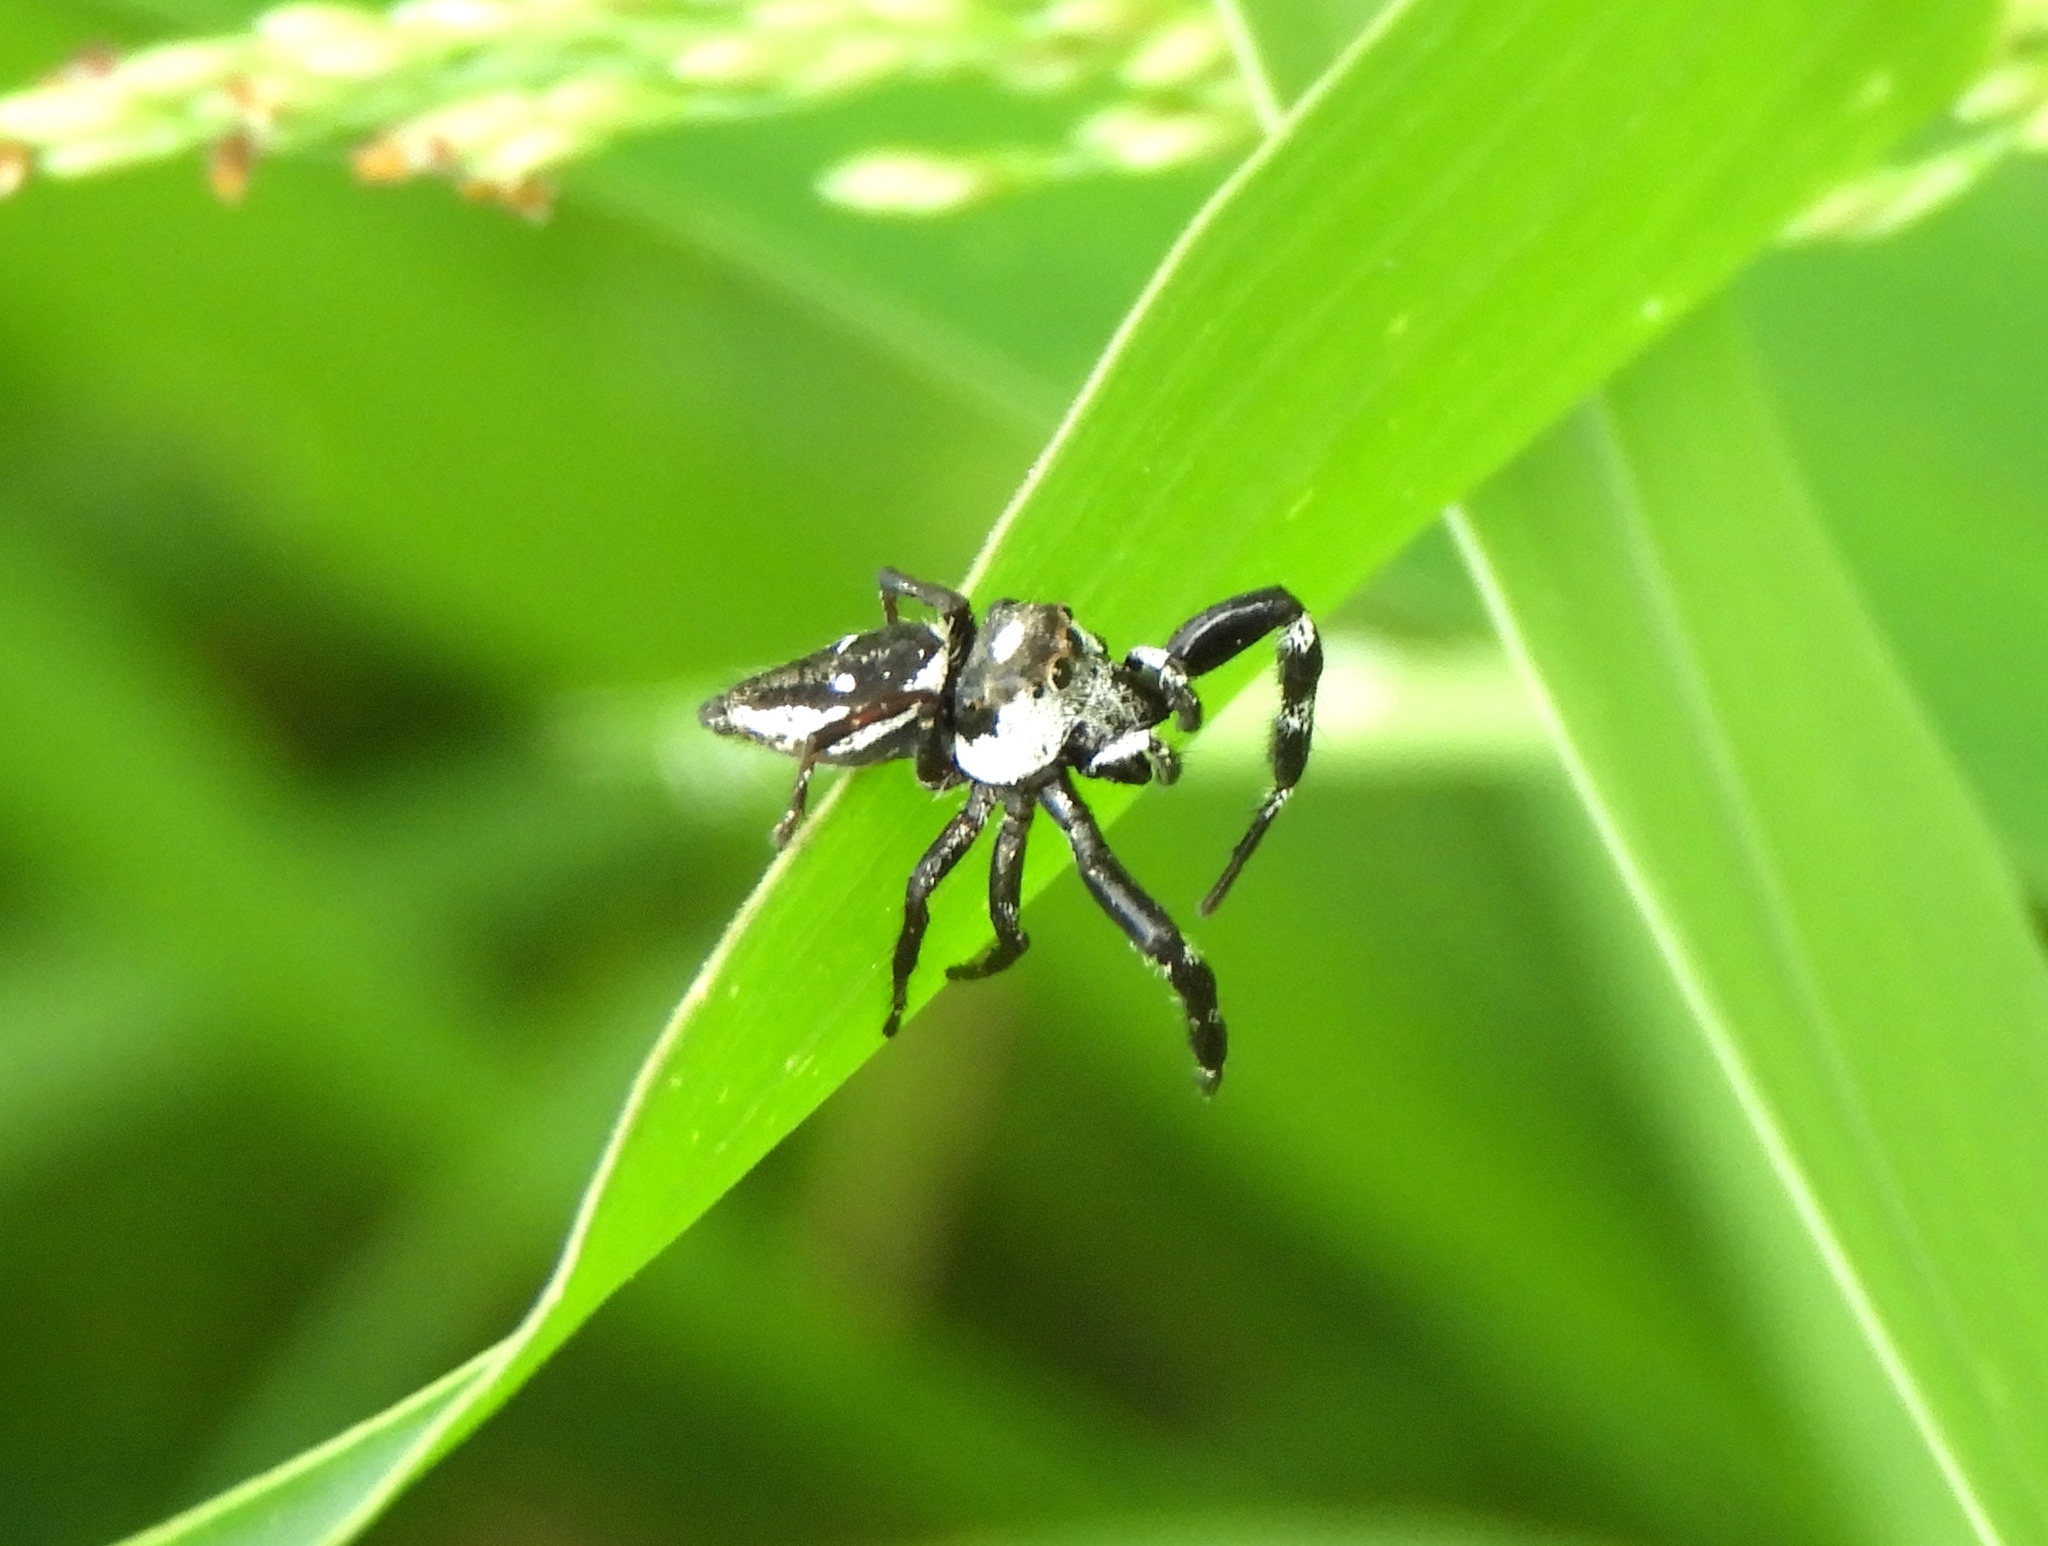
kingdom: Animalia
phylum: Arthropoda
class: Arachnida
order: Araneae
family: Salticidae
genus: Dendryphantes
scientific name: Dendryphantes zygoballoides
